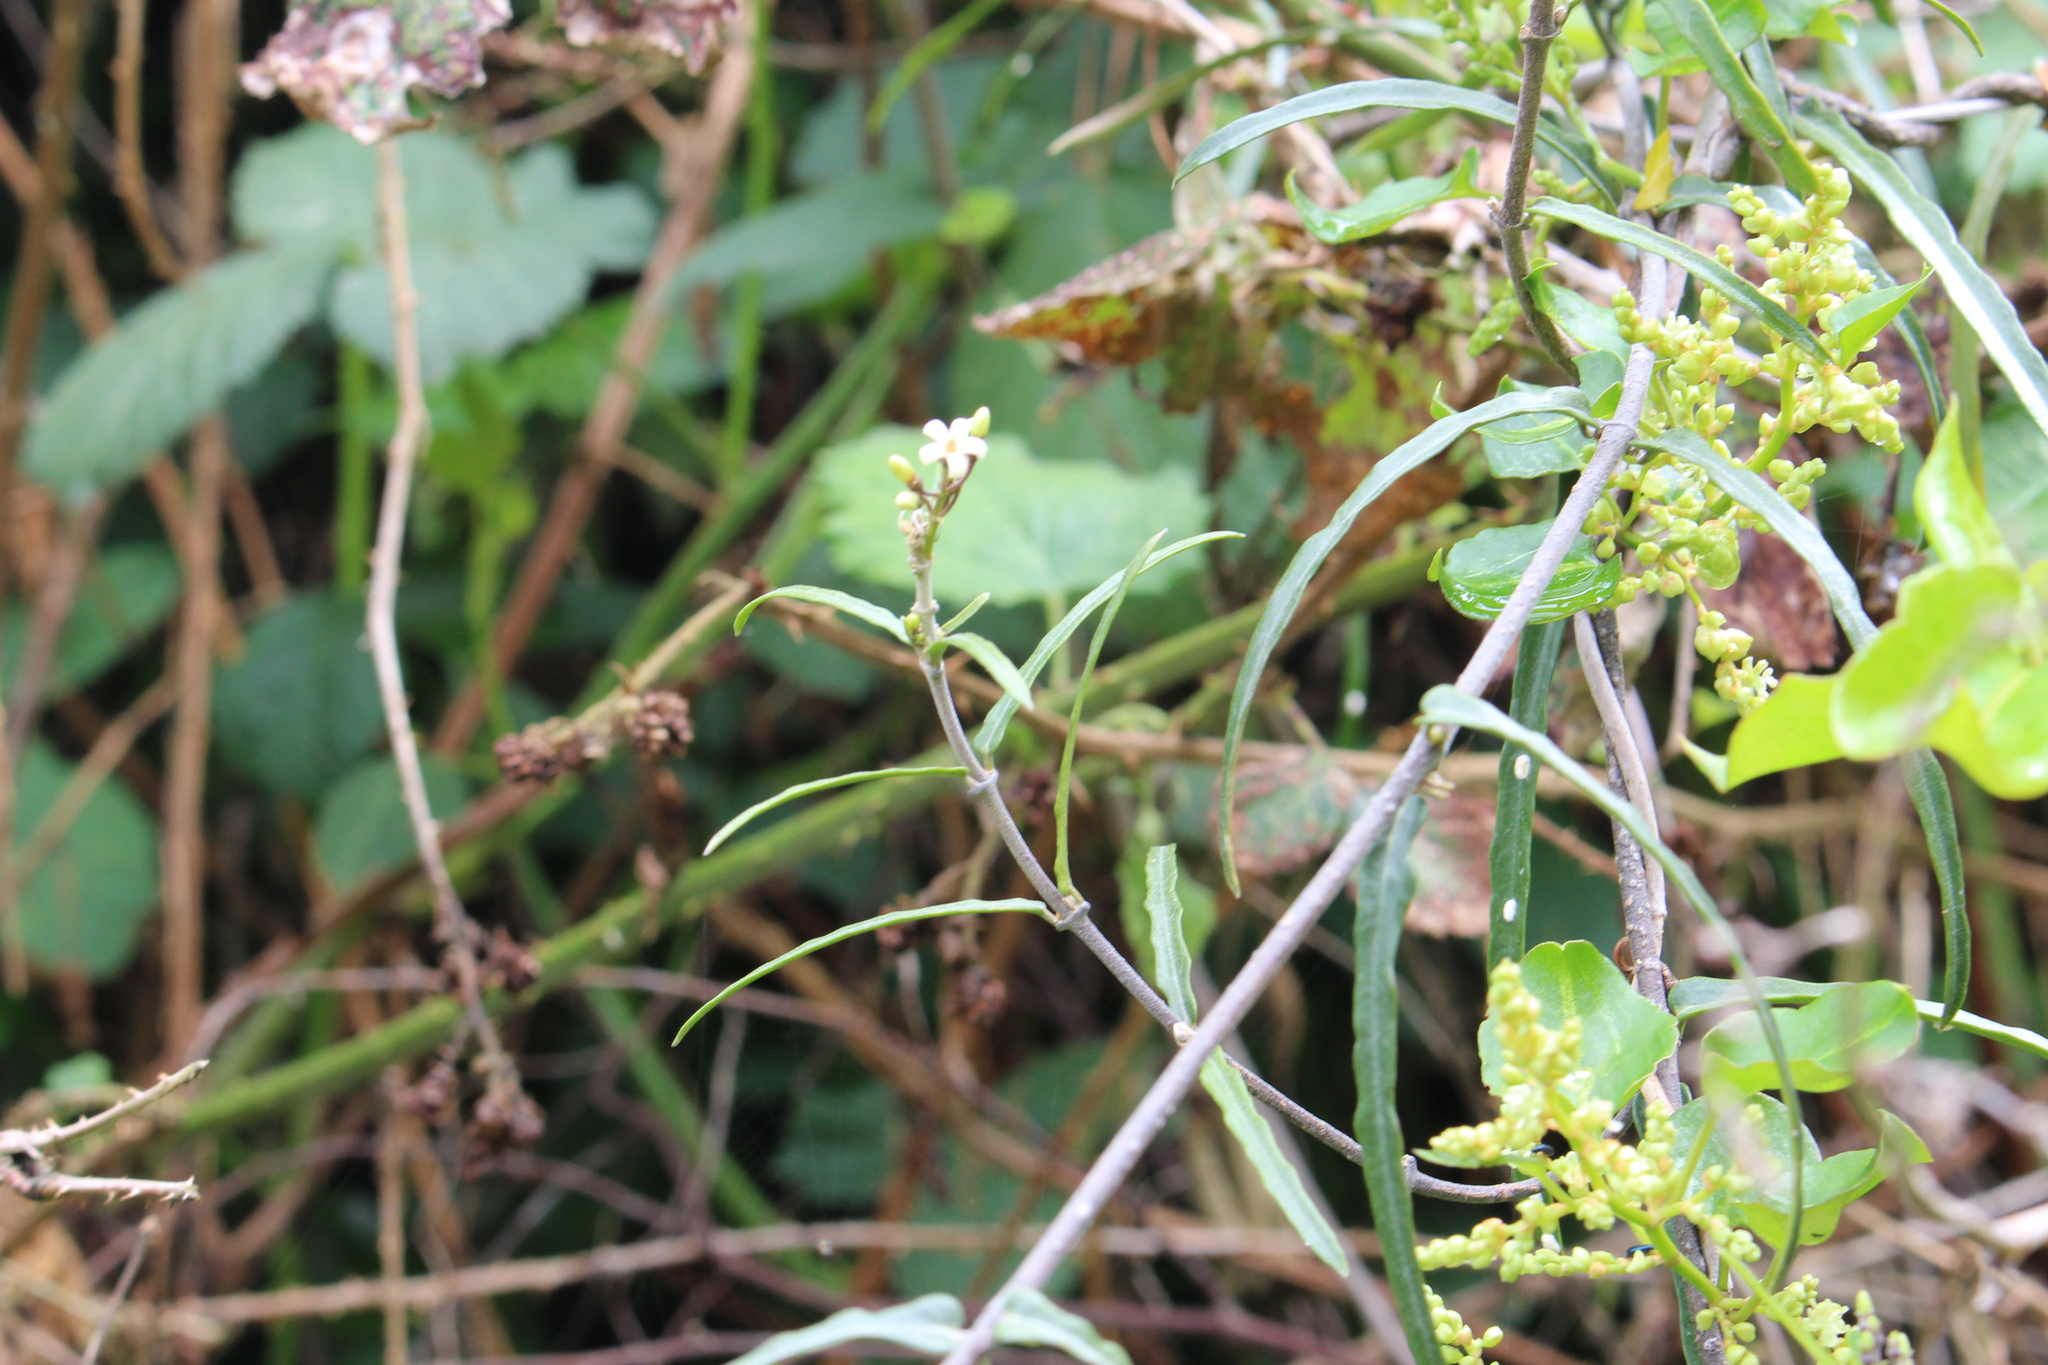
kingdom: Plantae
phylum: Tracheophyta
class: Magnoliopsida
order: Gentianales
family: Apocynaceae
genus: Parsonsia
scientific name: Parsonsia capsularis
